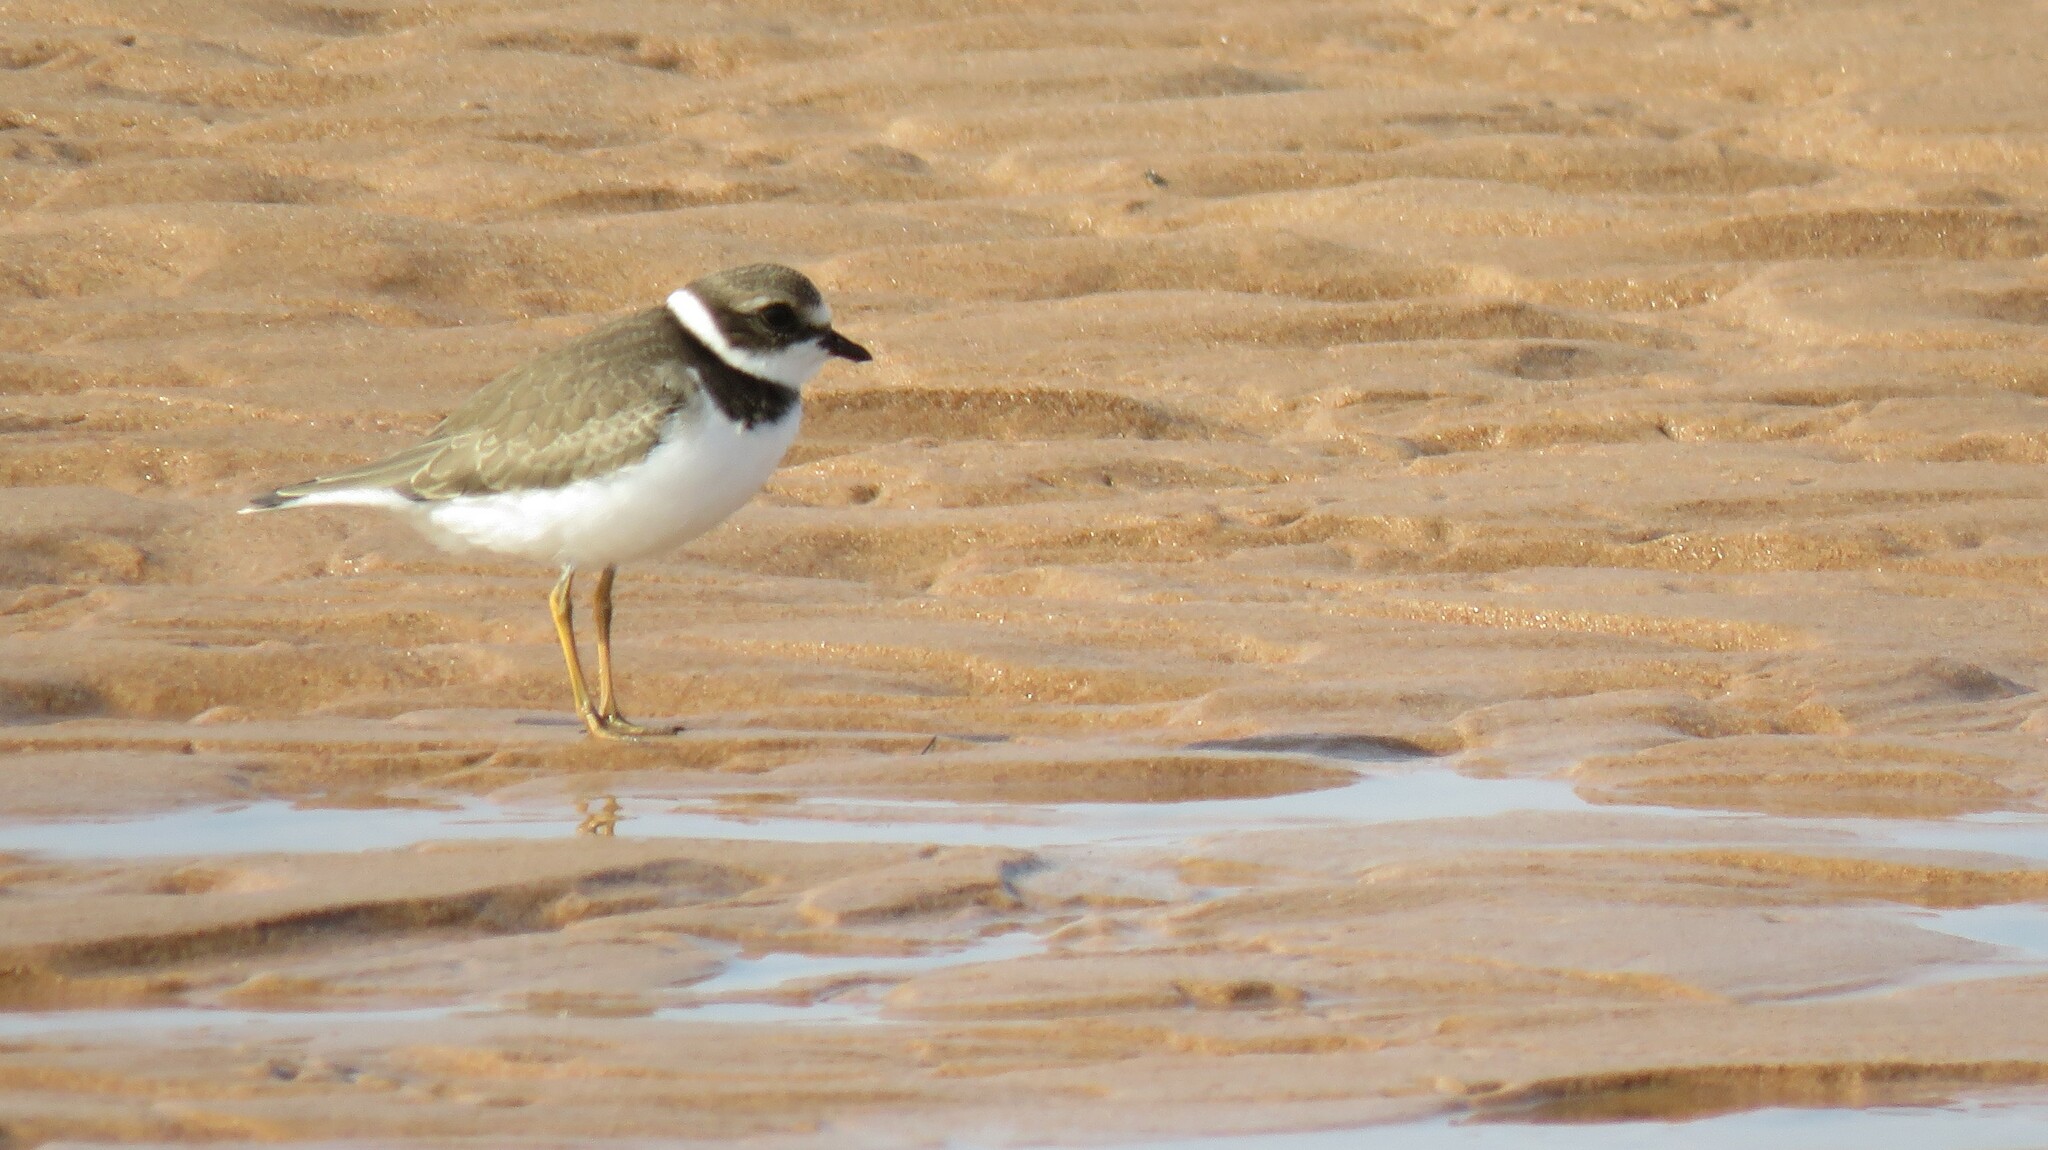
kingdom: Animalia
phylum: Chordata
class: Aves
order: Charadriiformes
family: Charadriidae
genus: Charadrius
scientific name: Charadrius semipalmatus
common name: Semipalmated plover
